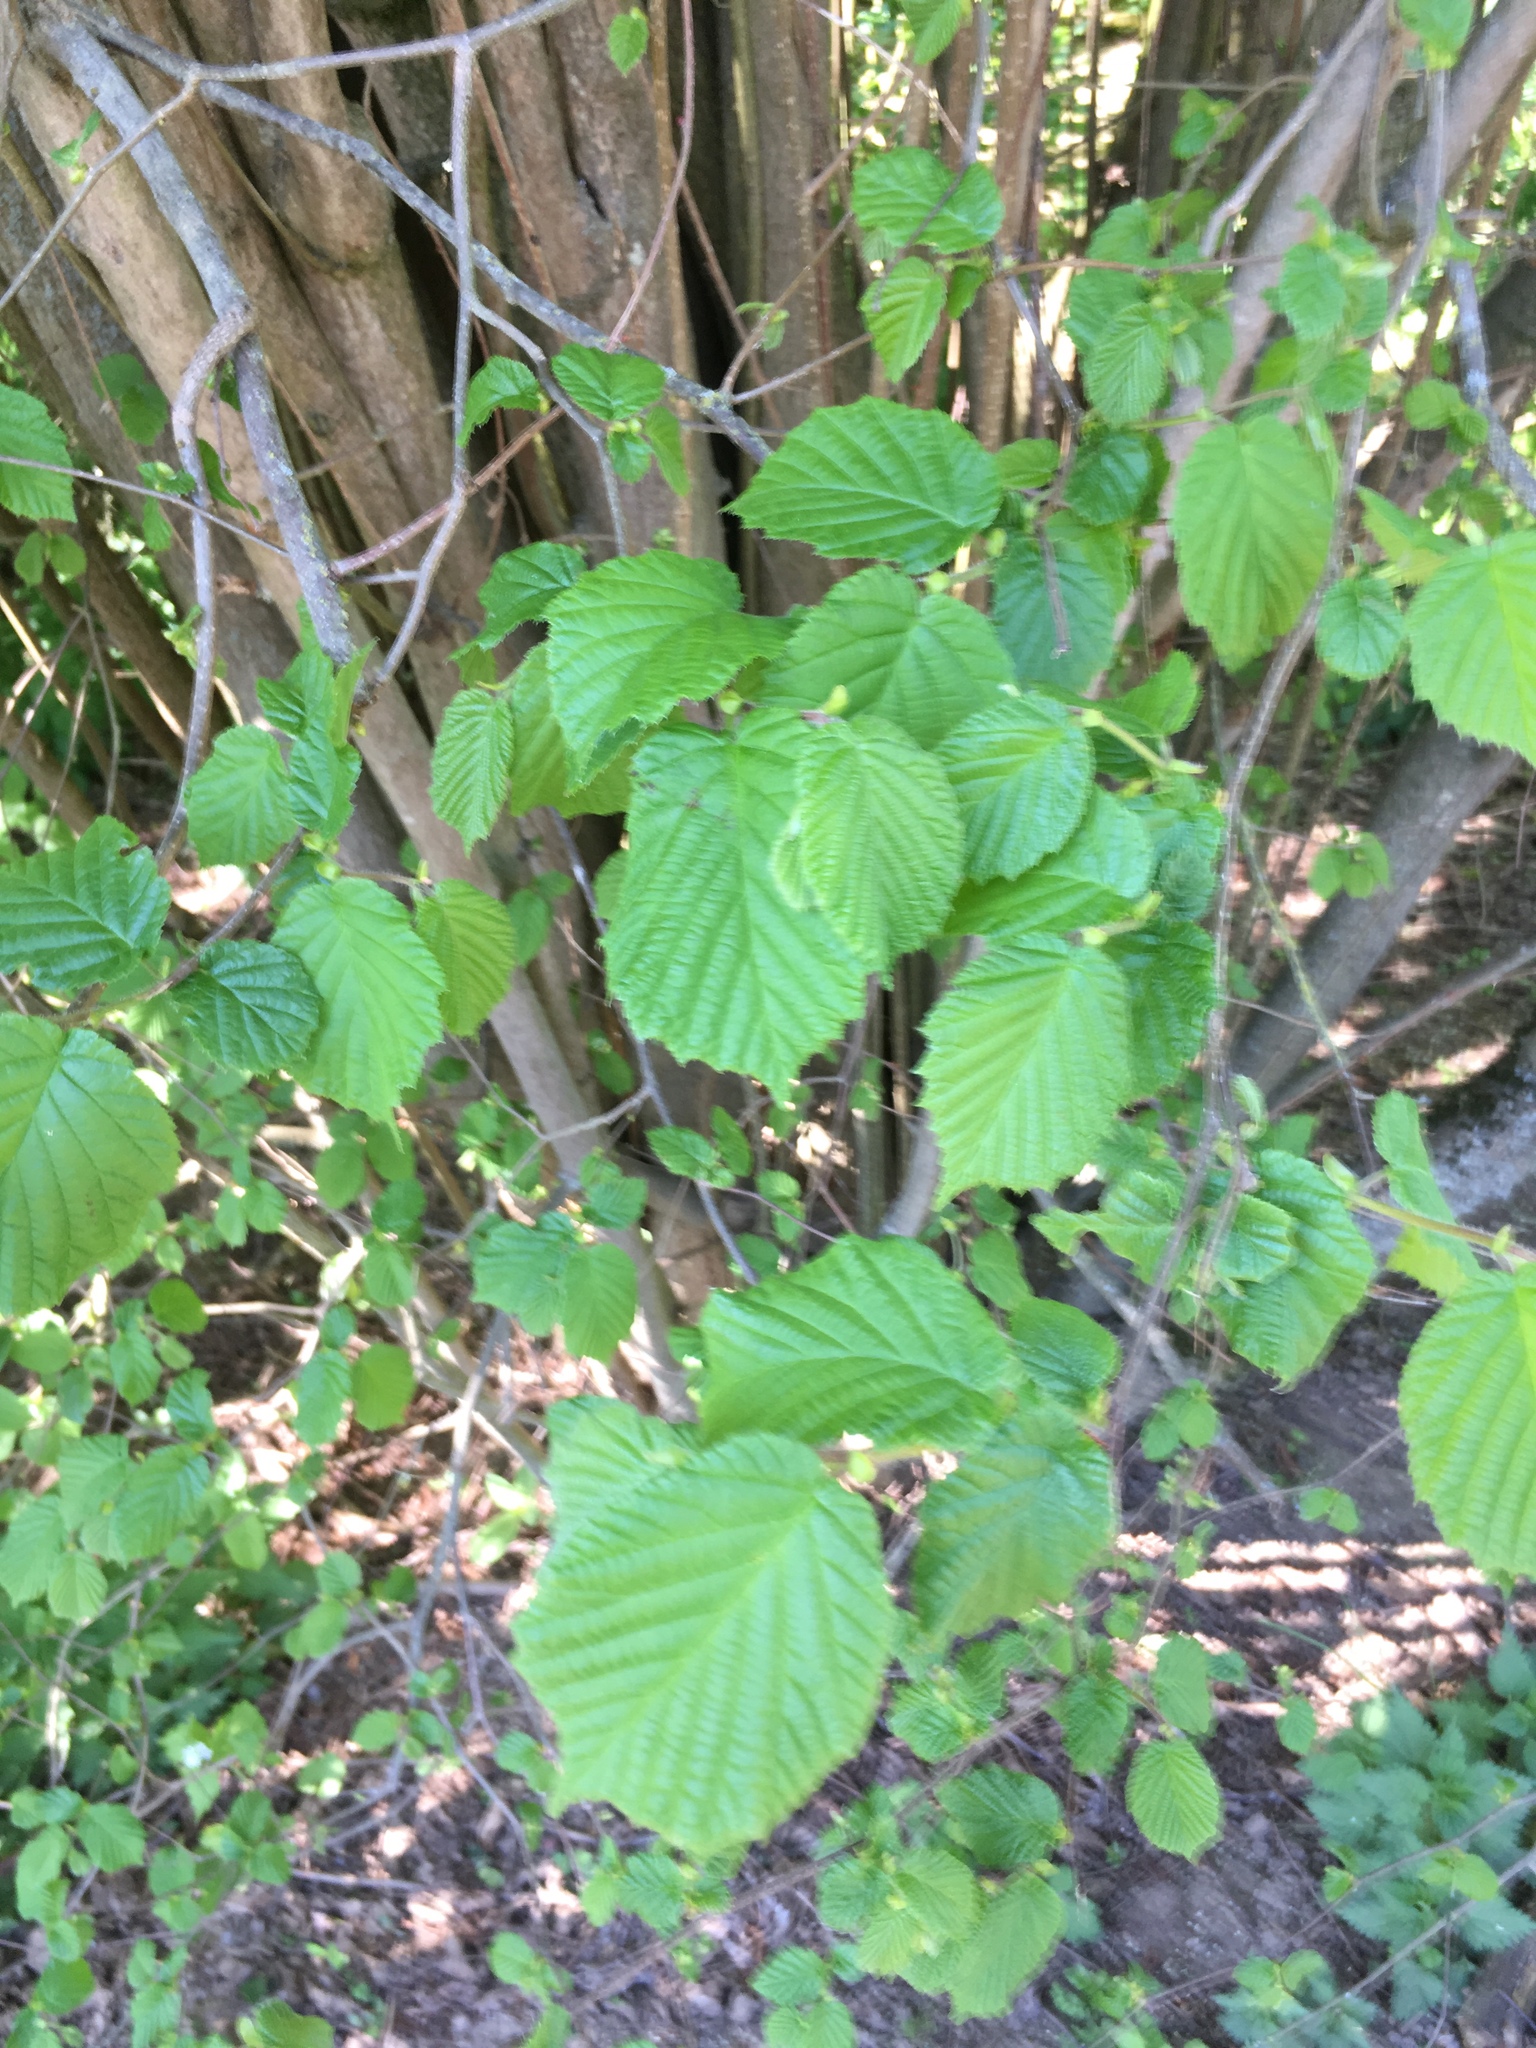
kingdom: Plantae
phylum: Tracheophyta
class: Magnoliopsida
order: Fagales
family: Betulaceae
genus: Corylus
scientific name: Corylus avellana
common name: European hazel
